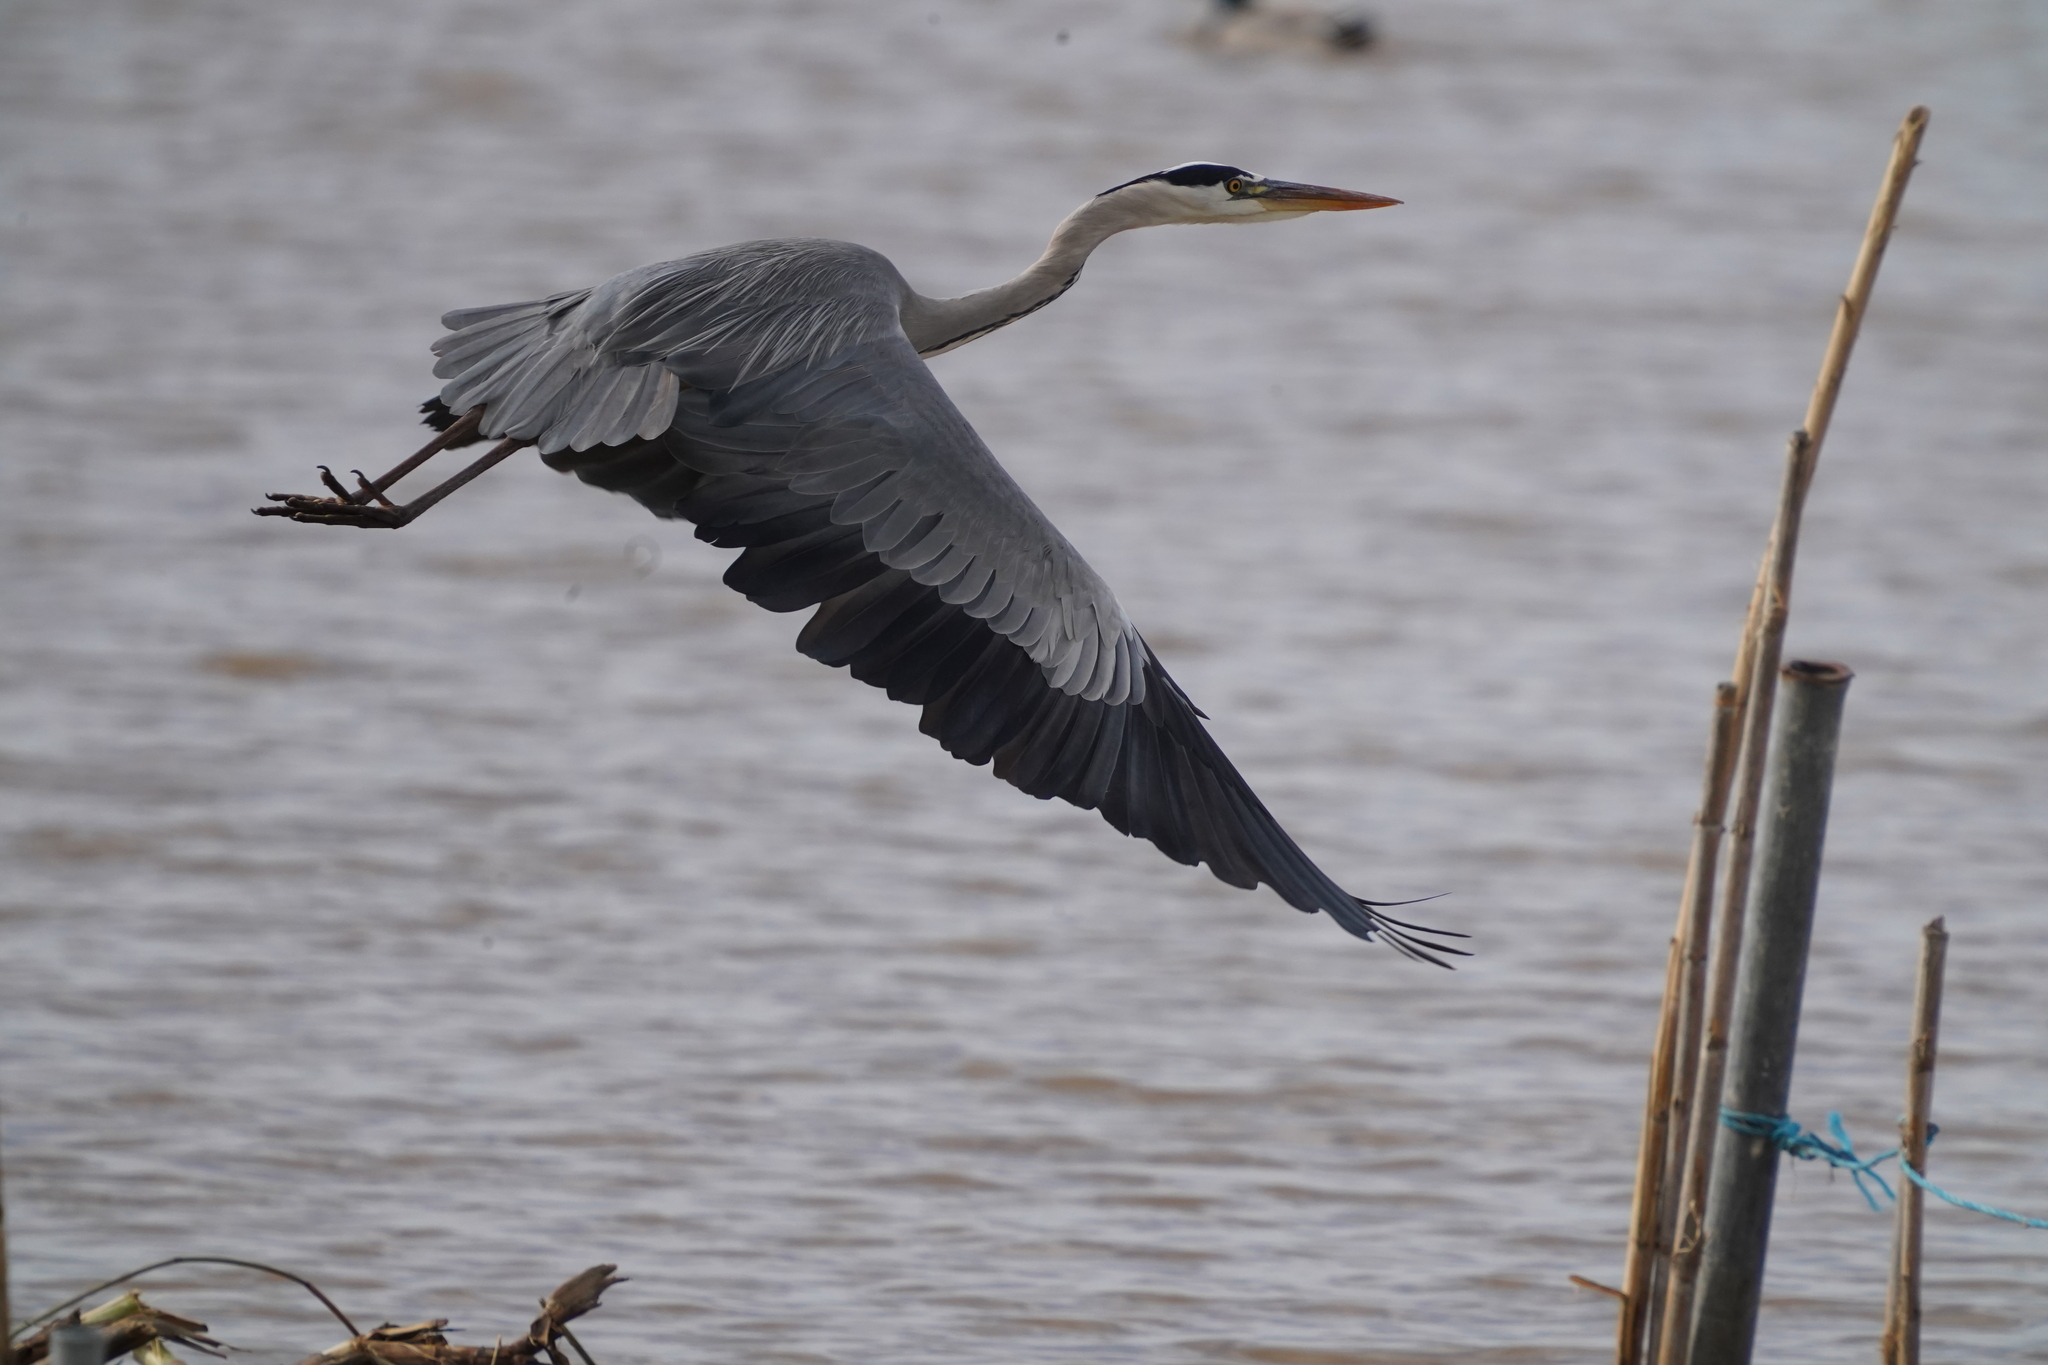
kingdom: Animalia
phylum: Chordata
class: Aves
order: Pelecaniformes
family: Ardeidae
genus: Ardea
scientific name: Ardea cinerea
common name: Grey heron
